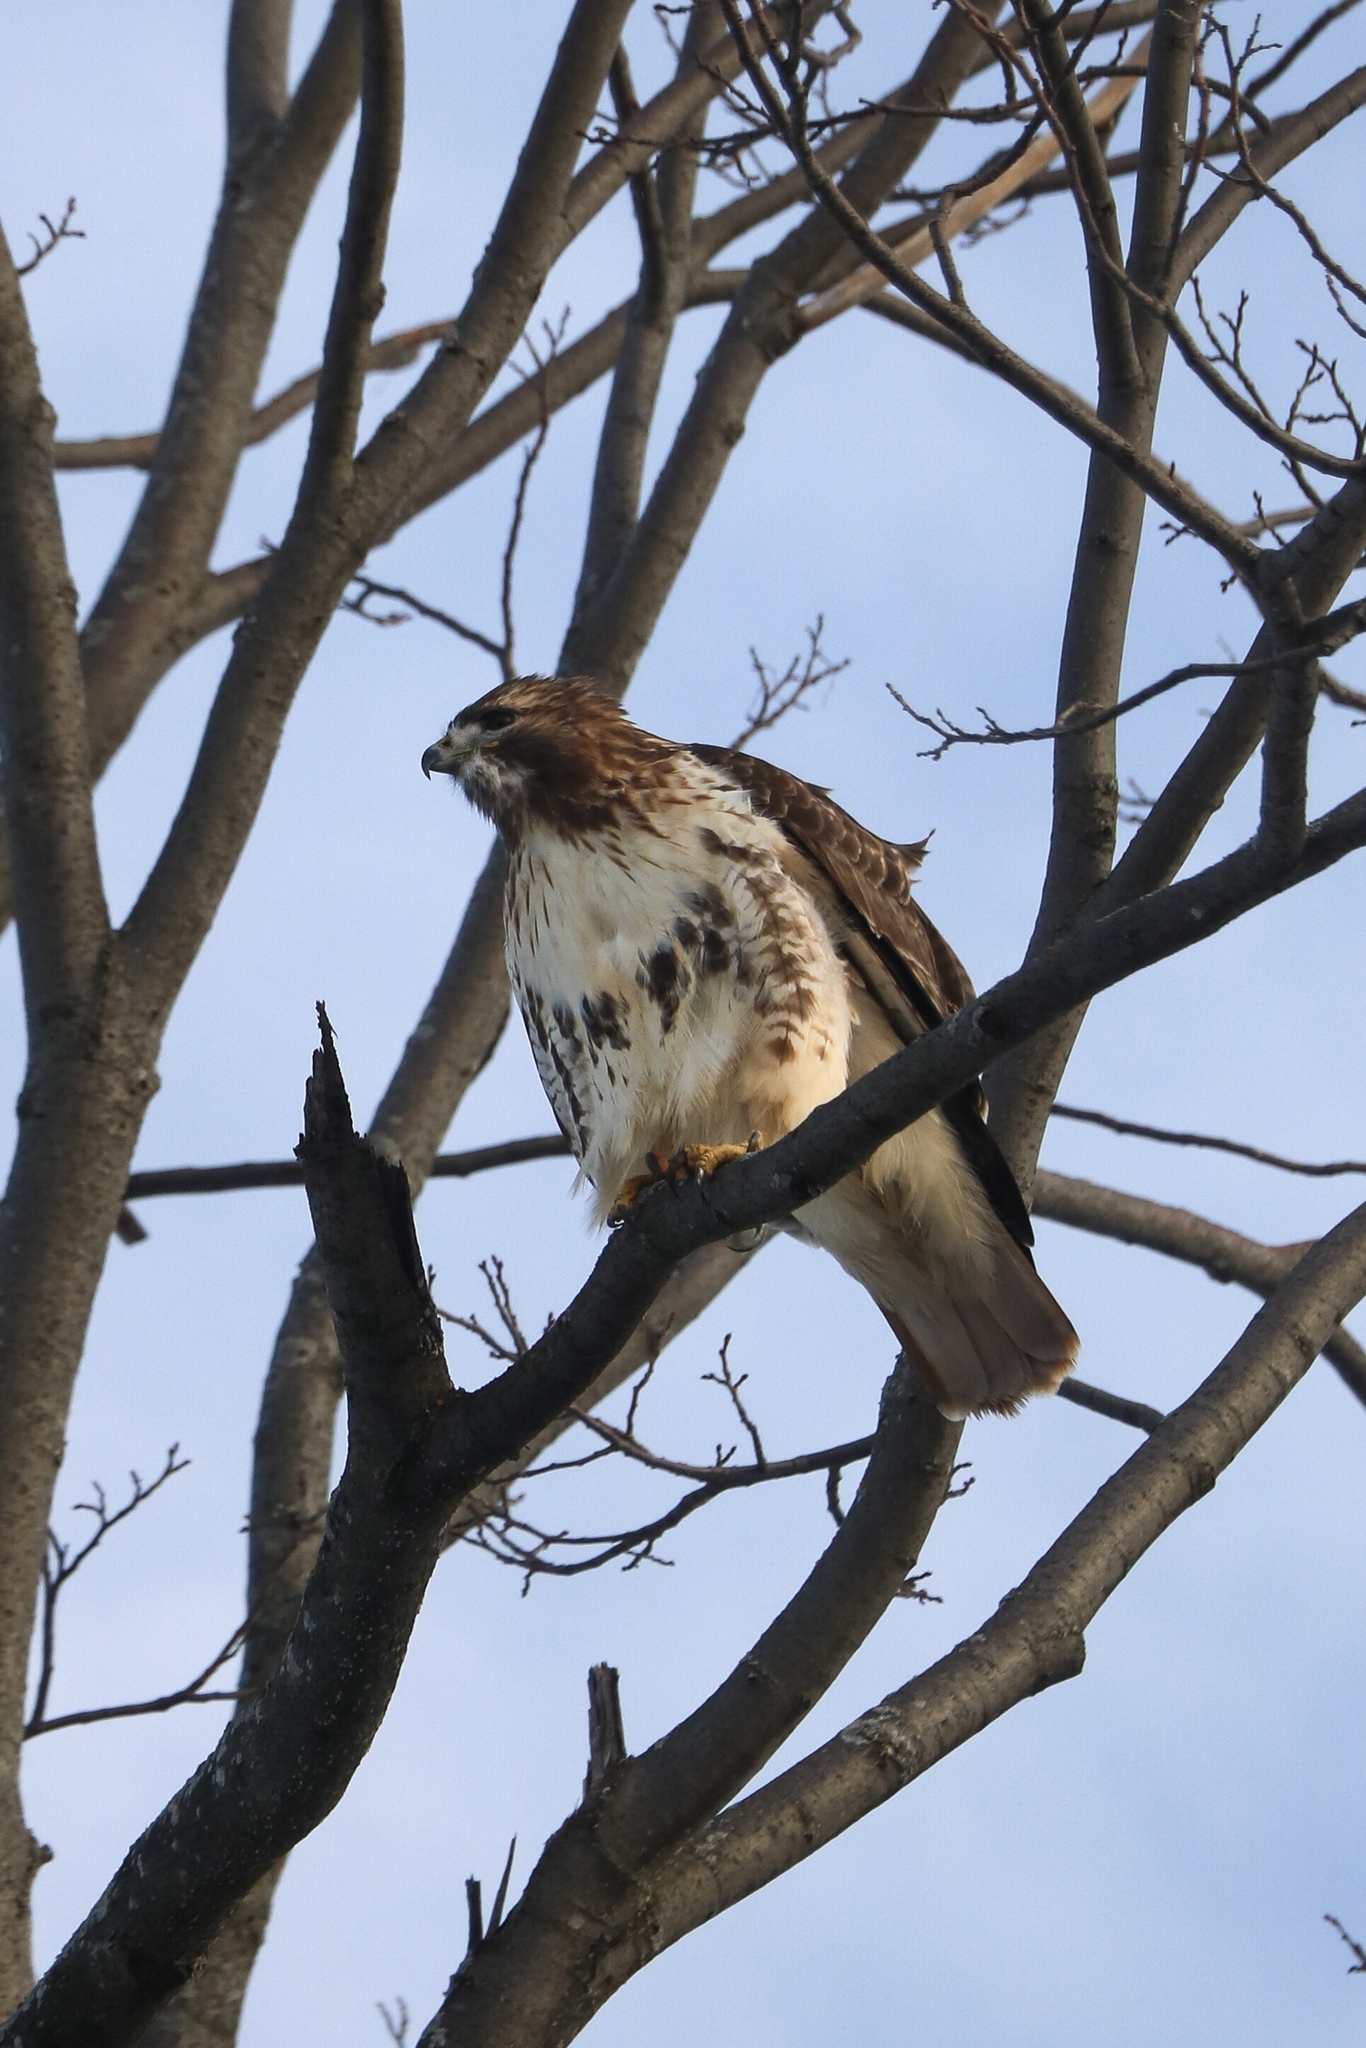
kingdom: Animalia
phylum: Chordata
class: Aves
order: Accipitriformes
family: Accipitridae
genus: Buteo
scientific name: Buteo jamaicensis
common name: Red-tailed hawk
